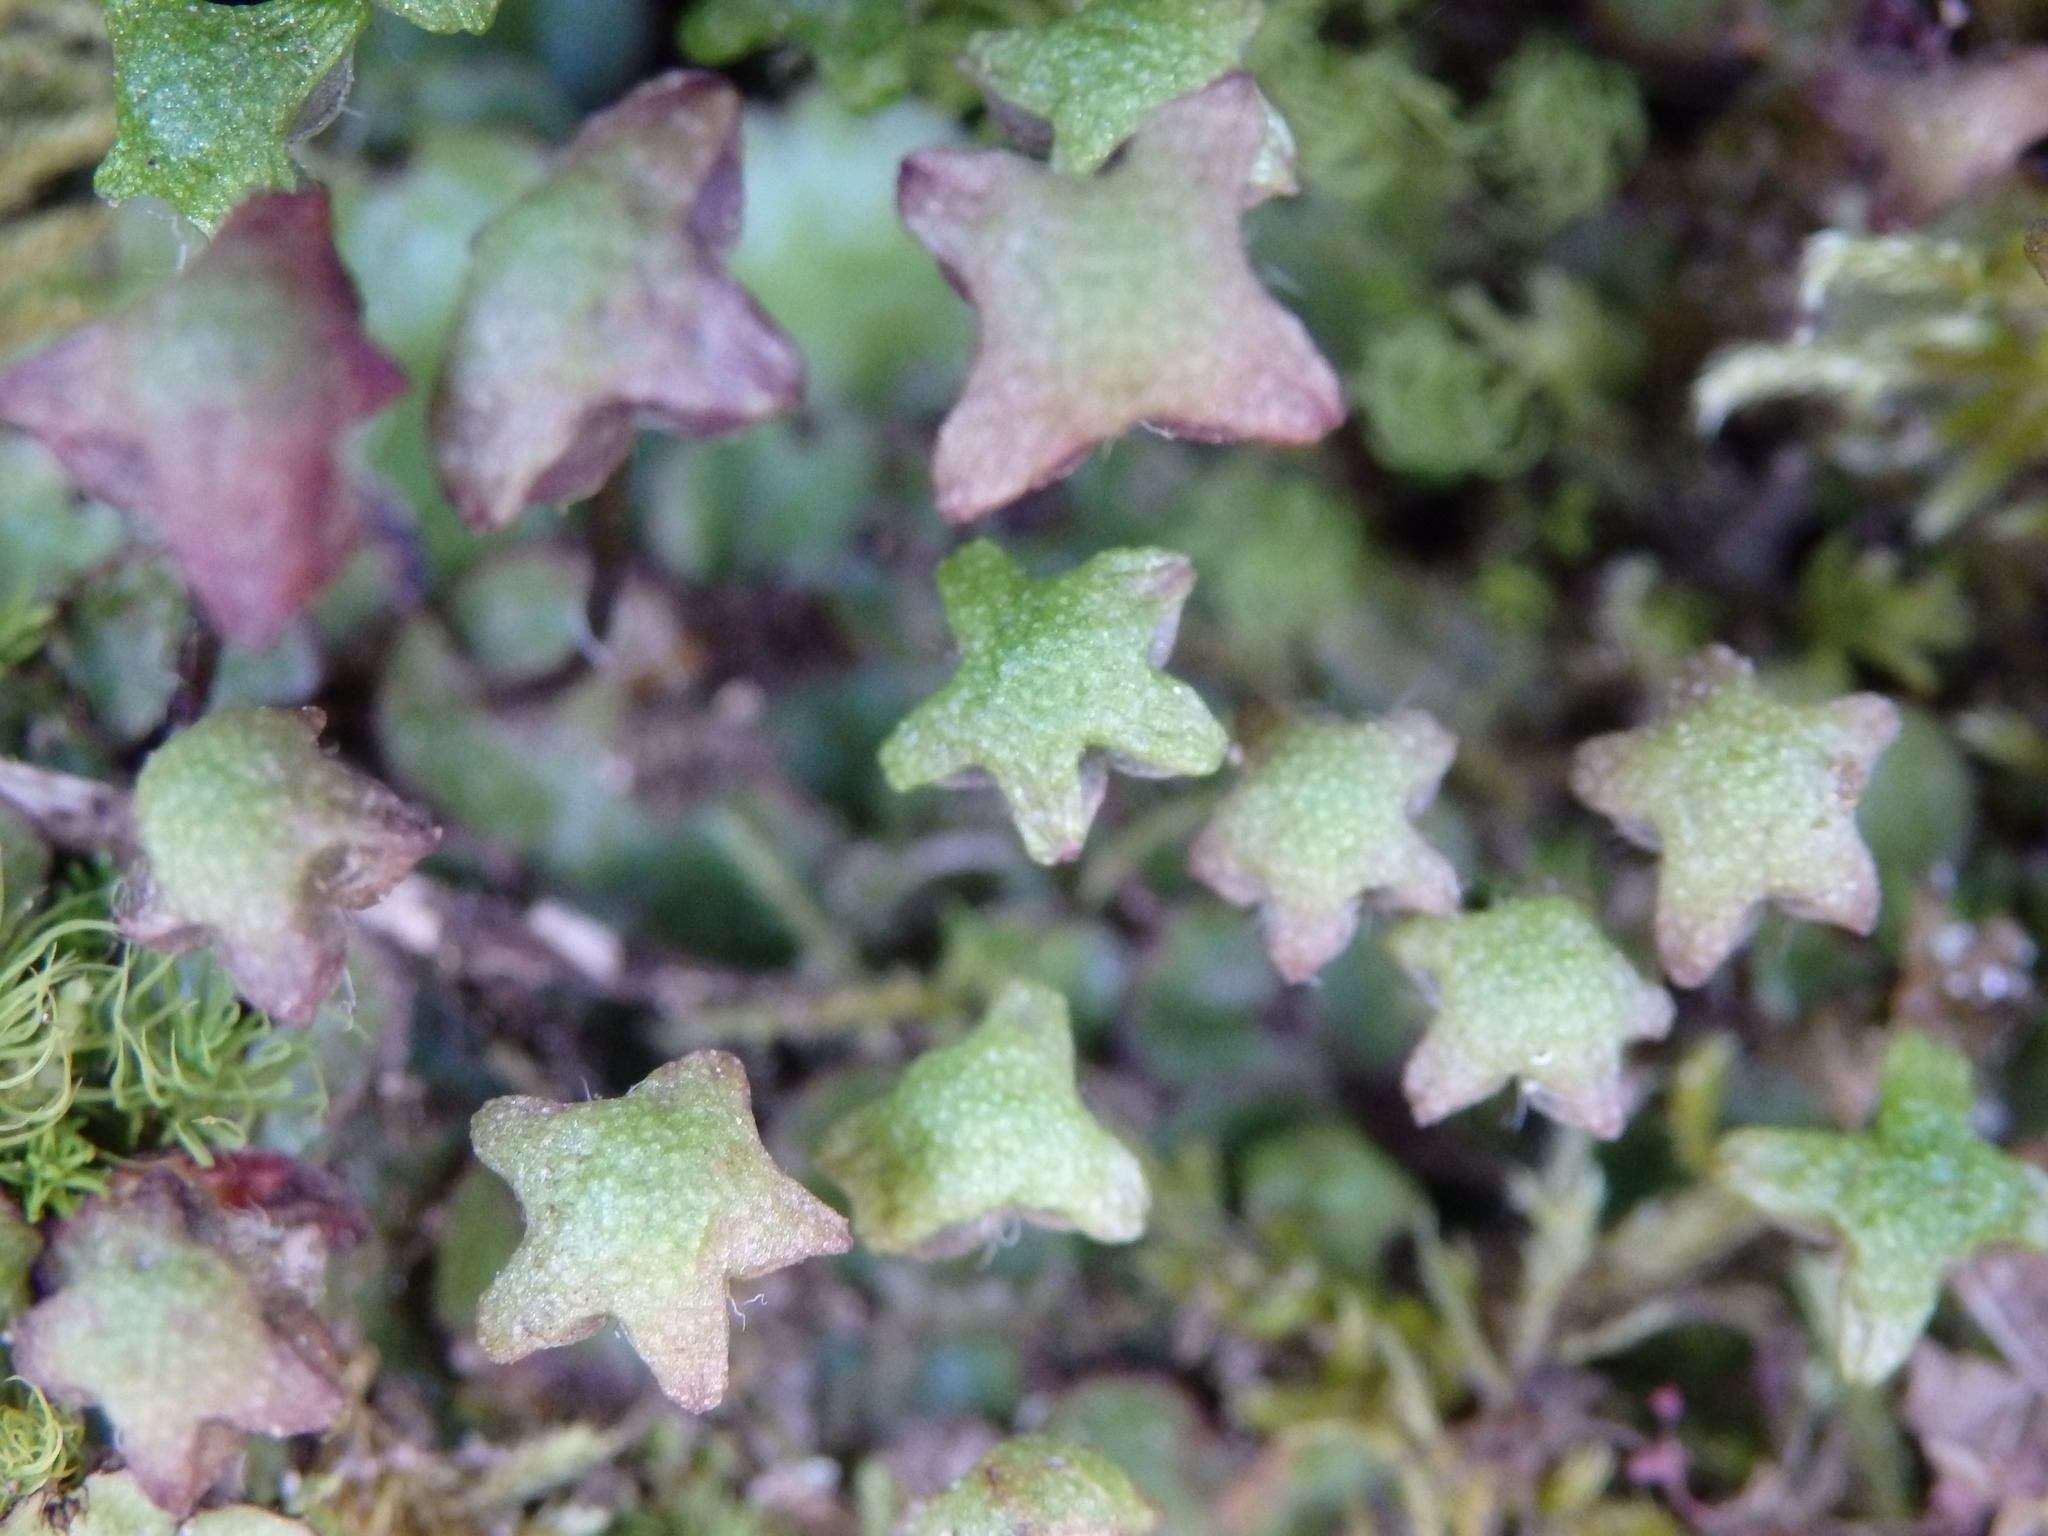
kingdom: Plantae
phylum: Marchantiophyta
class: Marchantiopsida
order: Marchantiales
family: Aytoniaceae
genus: Reboulia
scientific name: Reboulia hemisphaerica
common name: Purple-margined liverwort
